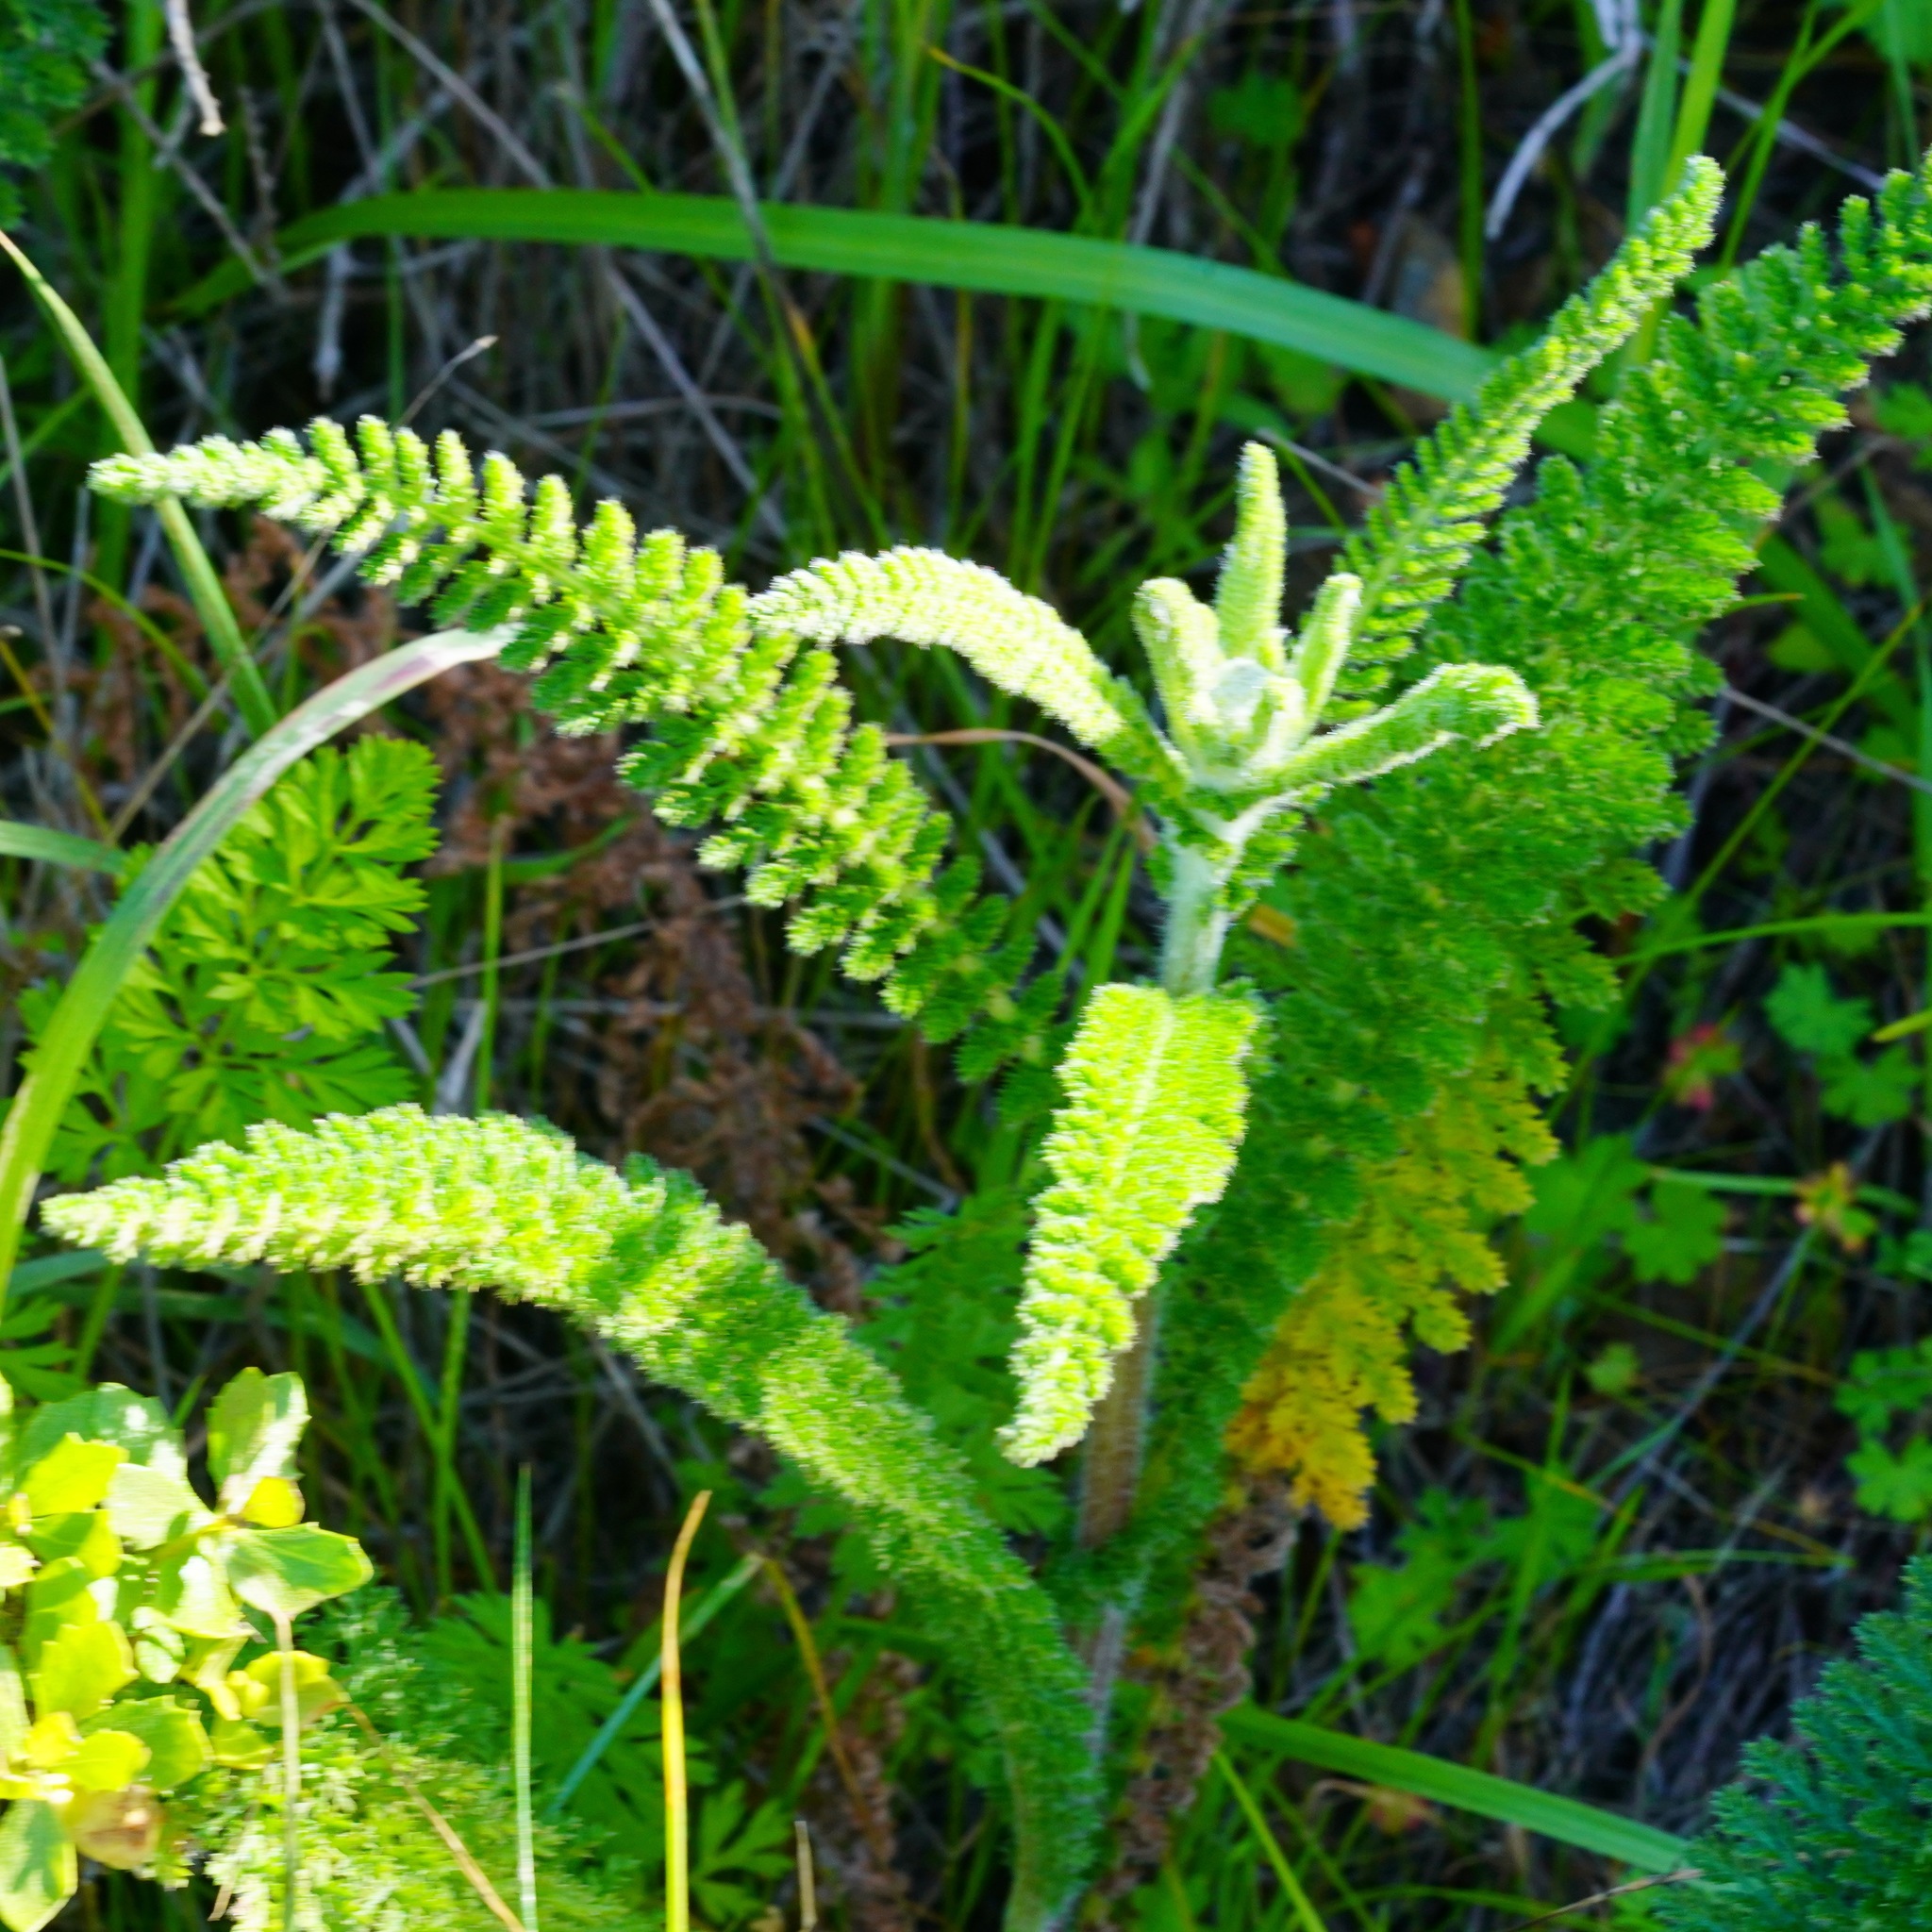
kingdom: Plantae
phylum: Tracheophyta
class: Magnoliopsida
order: Asterales
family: Asteraceae
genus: Achillea
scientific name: Achillea millefolium
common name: Yarrow
